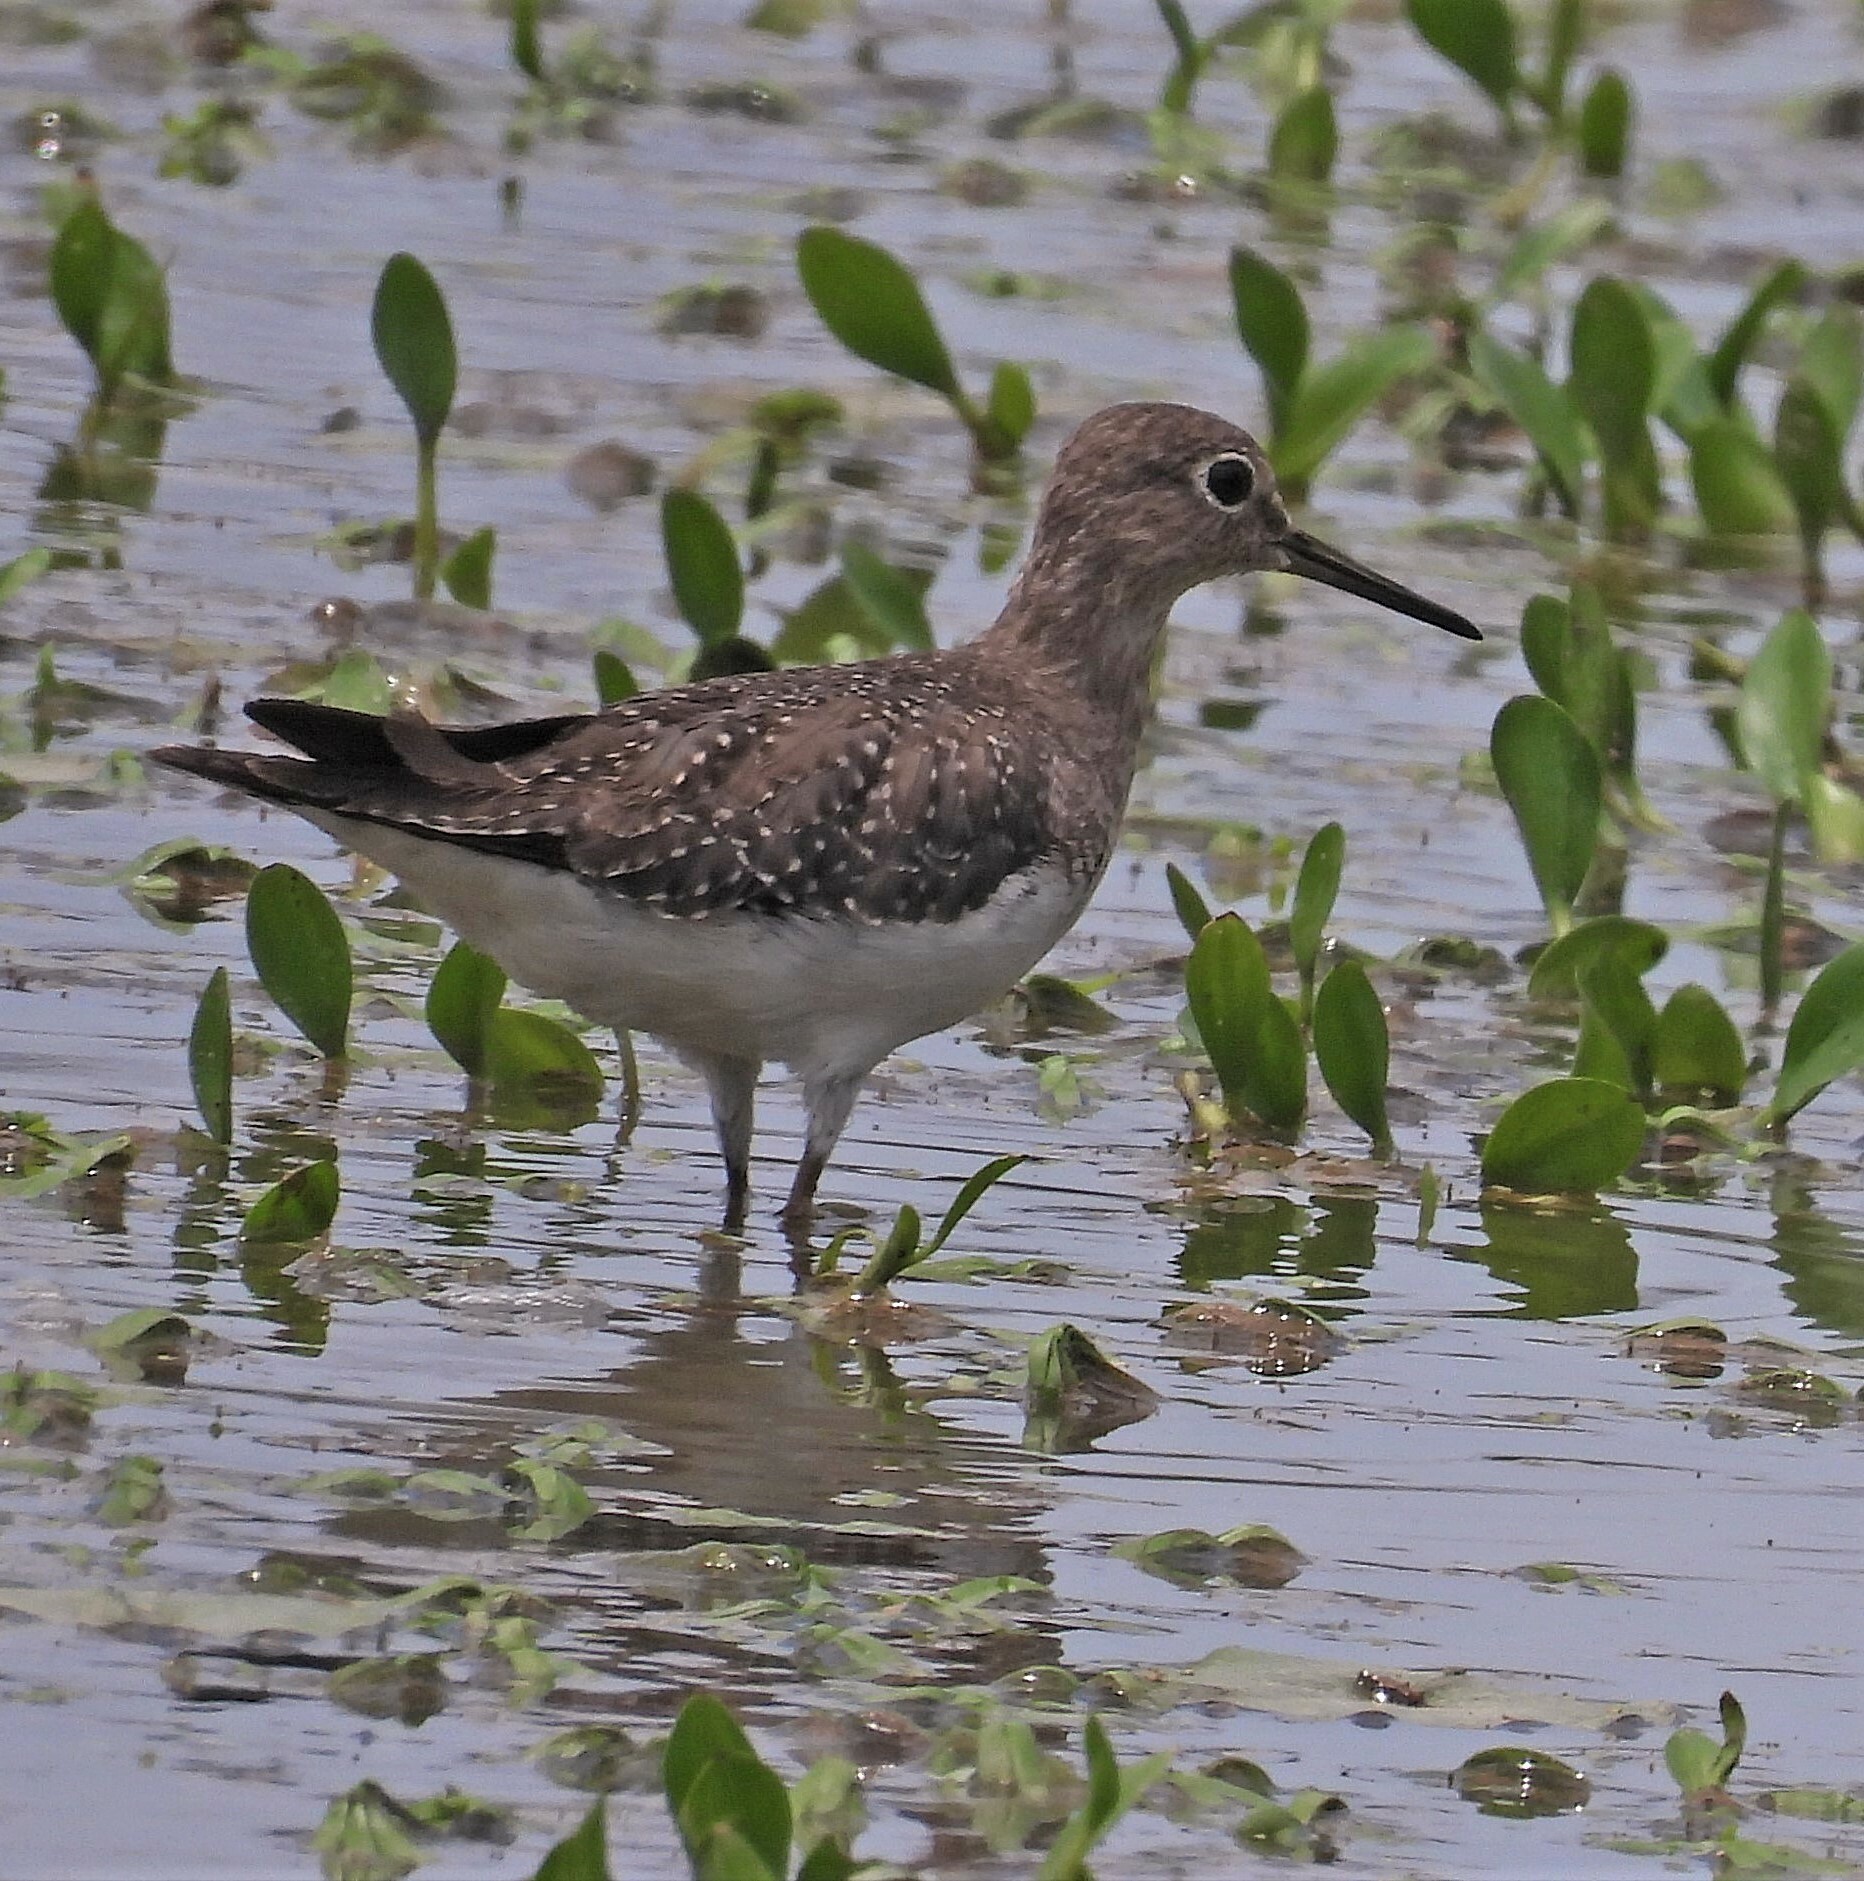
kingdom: Animalia
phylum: Chordata
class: Aves
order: Charadriiformes
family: Scolopacidae
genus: Tringa
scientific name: Tringa solitaria
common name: Solitary sandpiper
